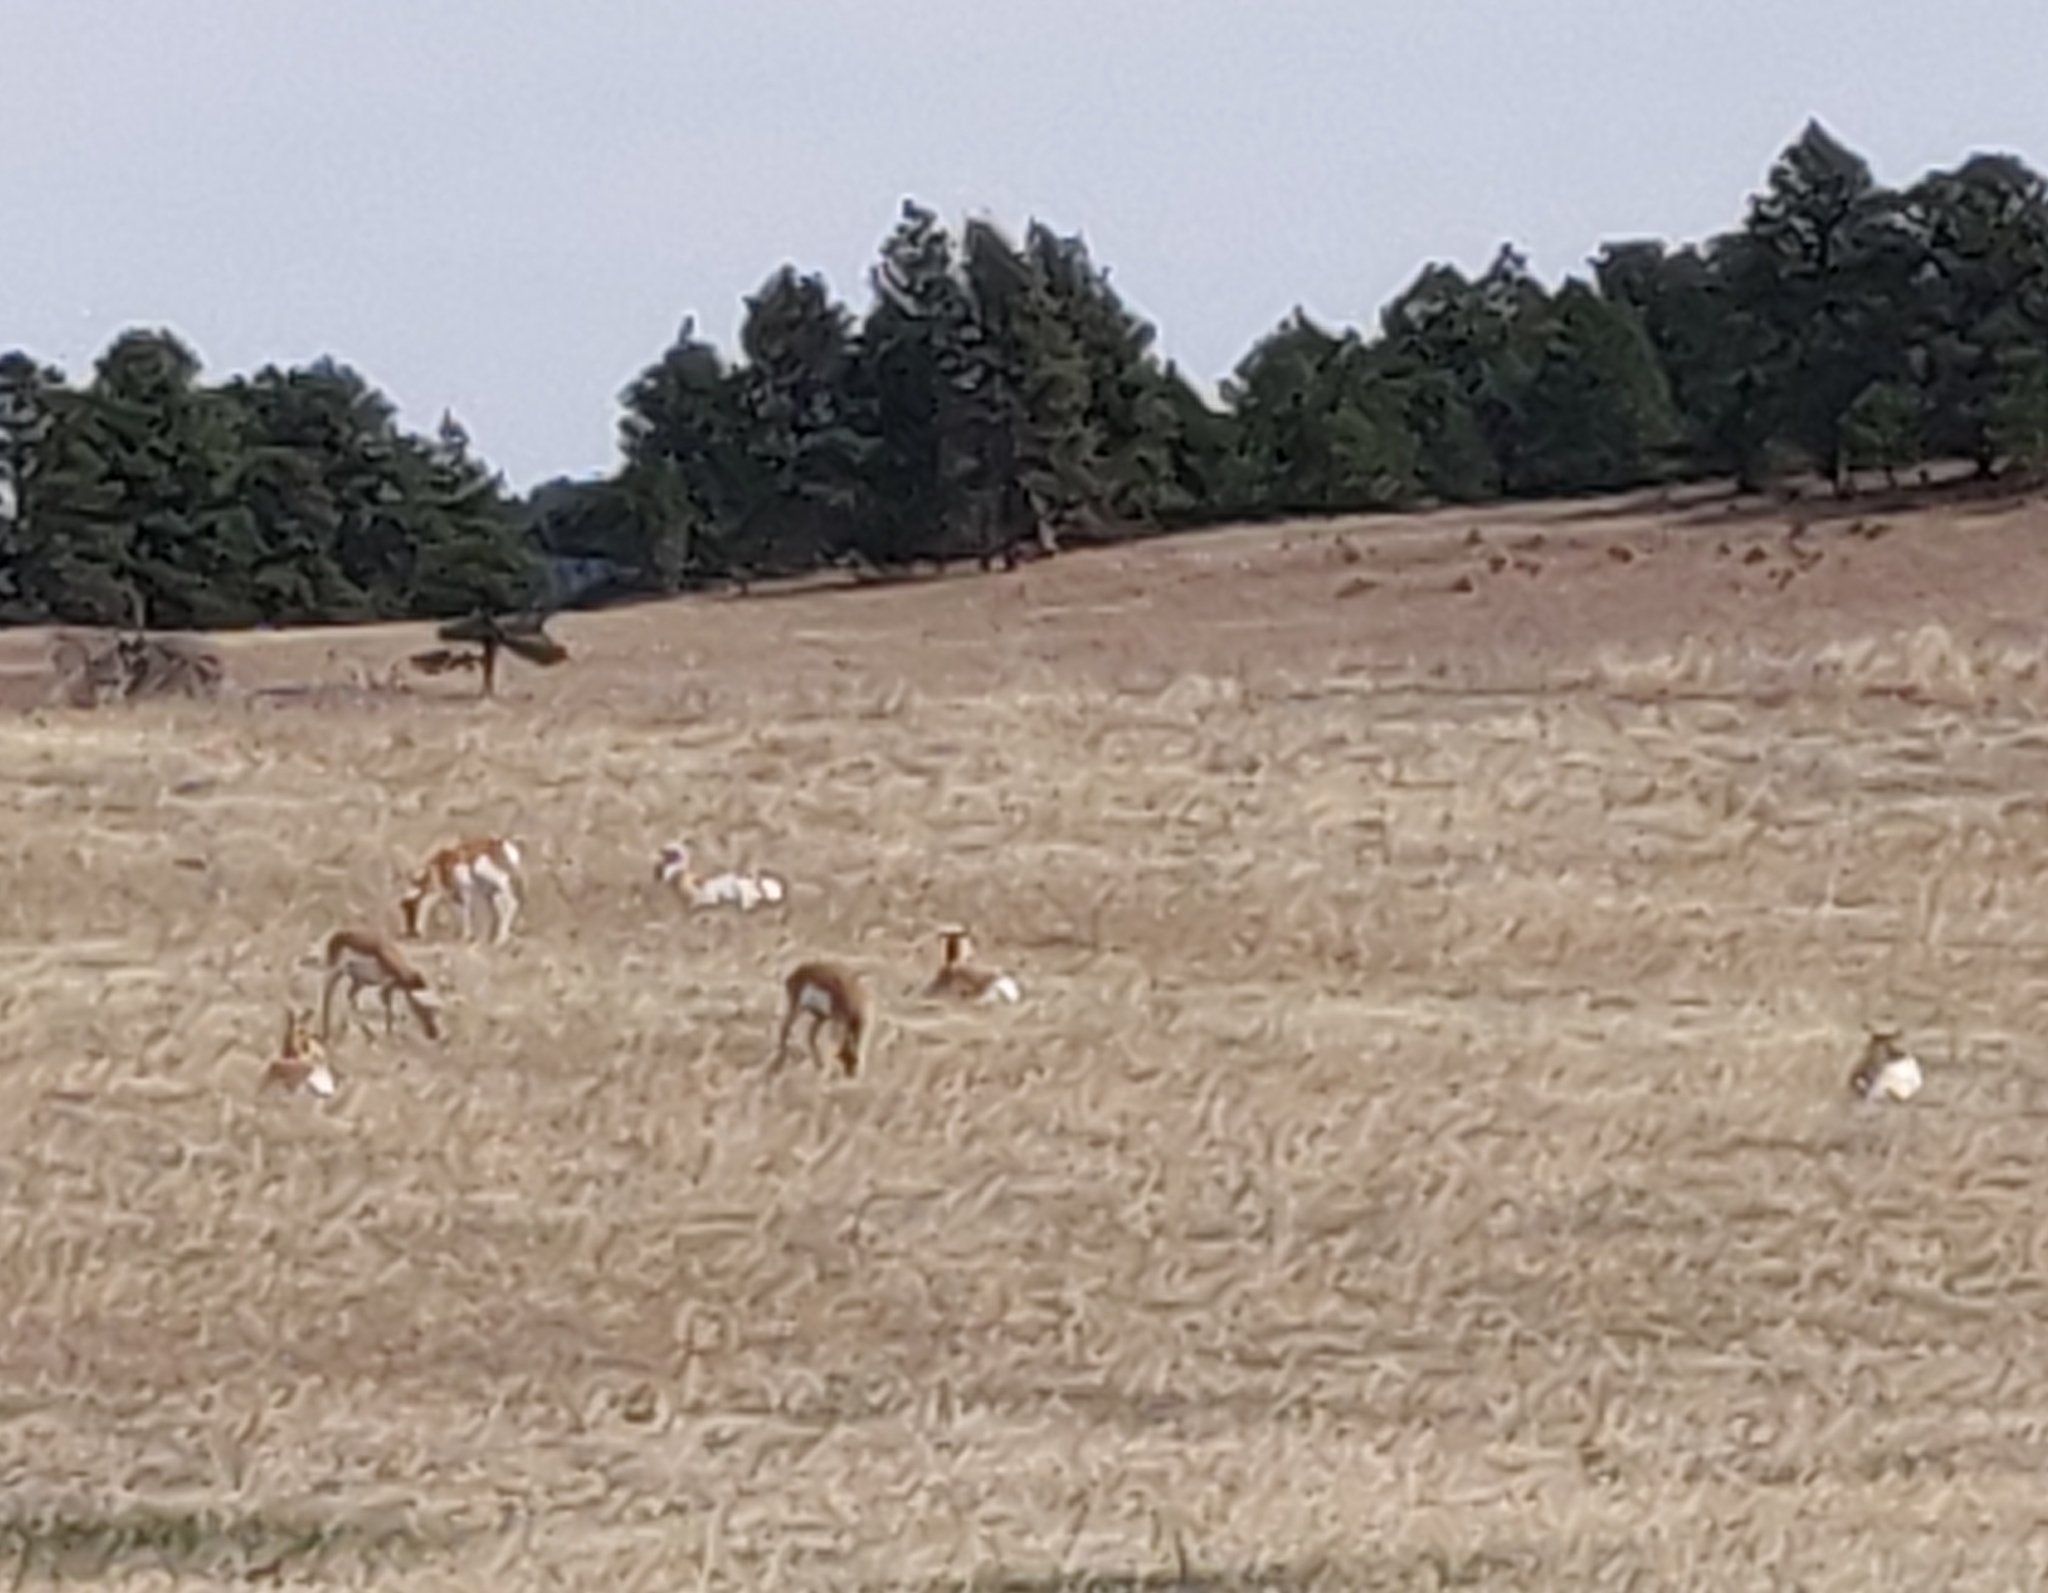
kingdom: Animalia
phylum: Chordata
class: Mammalia
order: Artiodactyla
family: Antilocapridae
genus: Antilocapra
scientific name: Antilocapra americana
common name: Pronghorn
